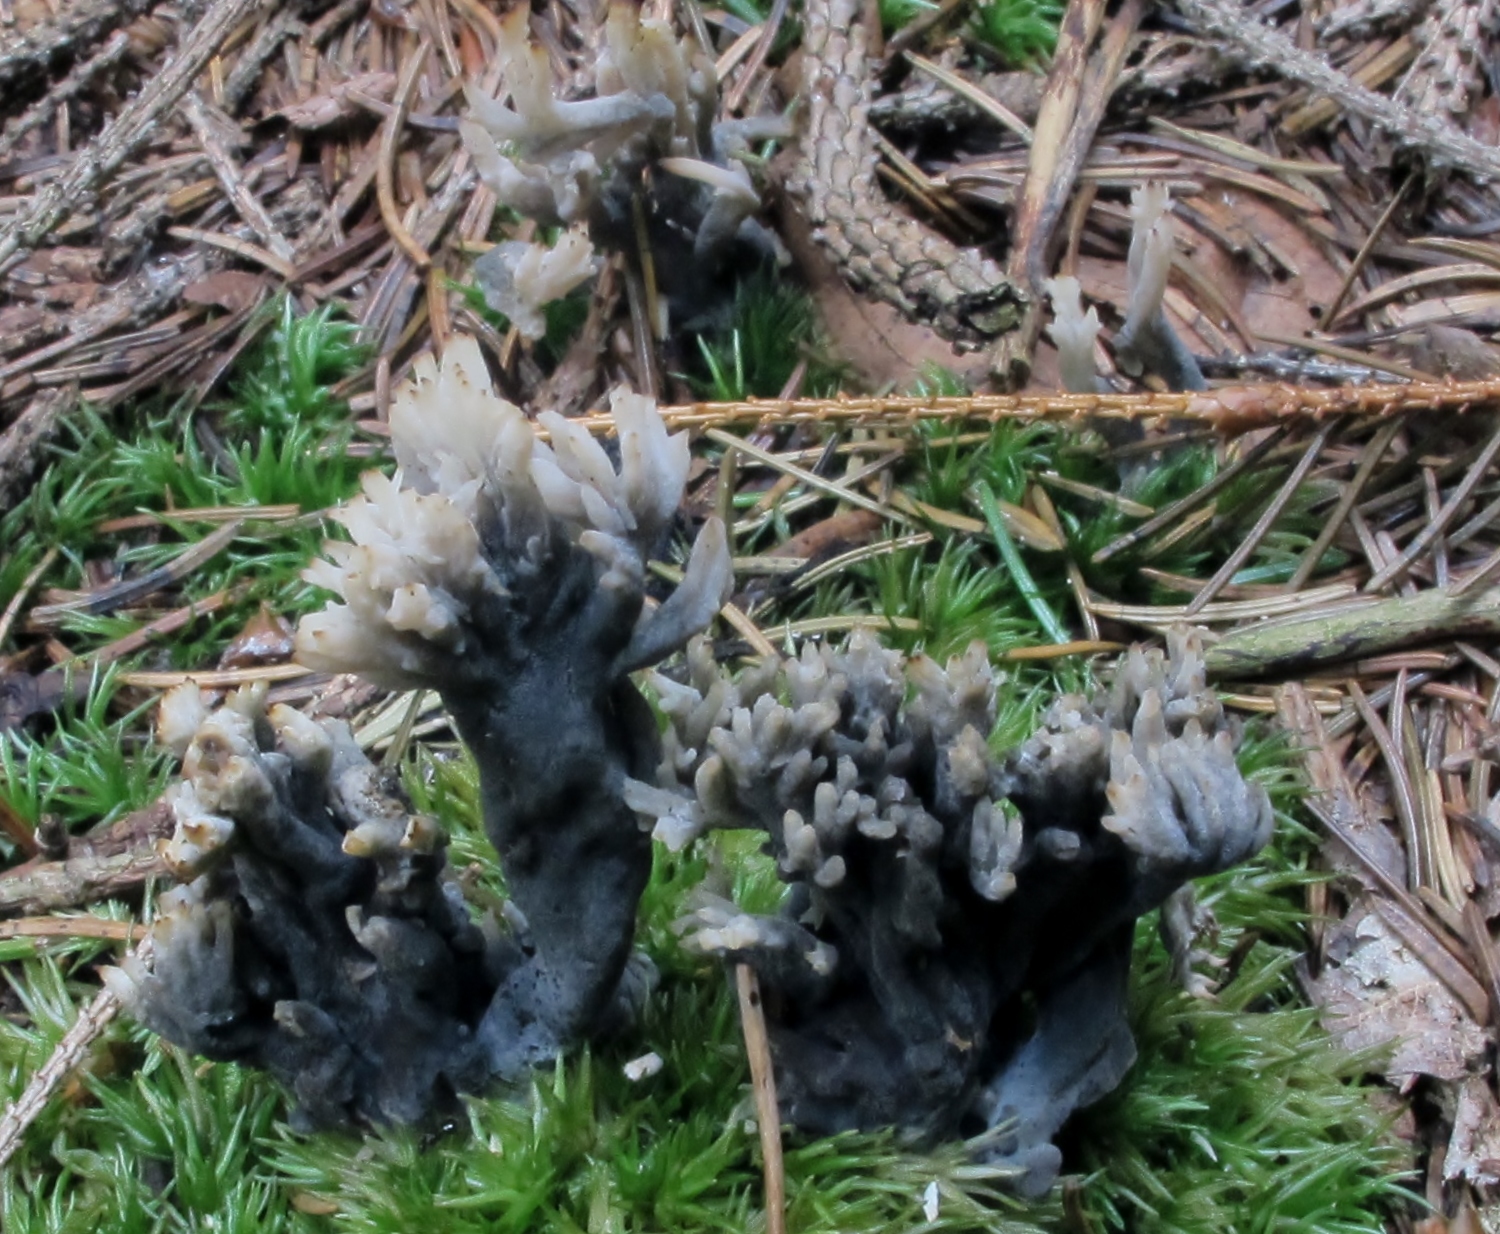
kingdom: Fungi
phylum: Ascomycota
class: Sordariomycetes
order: Sordariales
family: Helminthosphaeriaceae
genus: Helminthosphaeria
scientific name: Helminthosphaeria clavariarum
